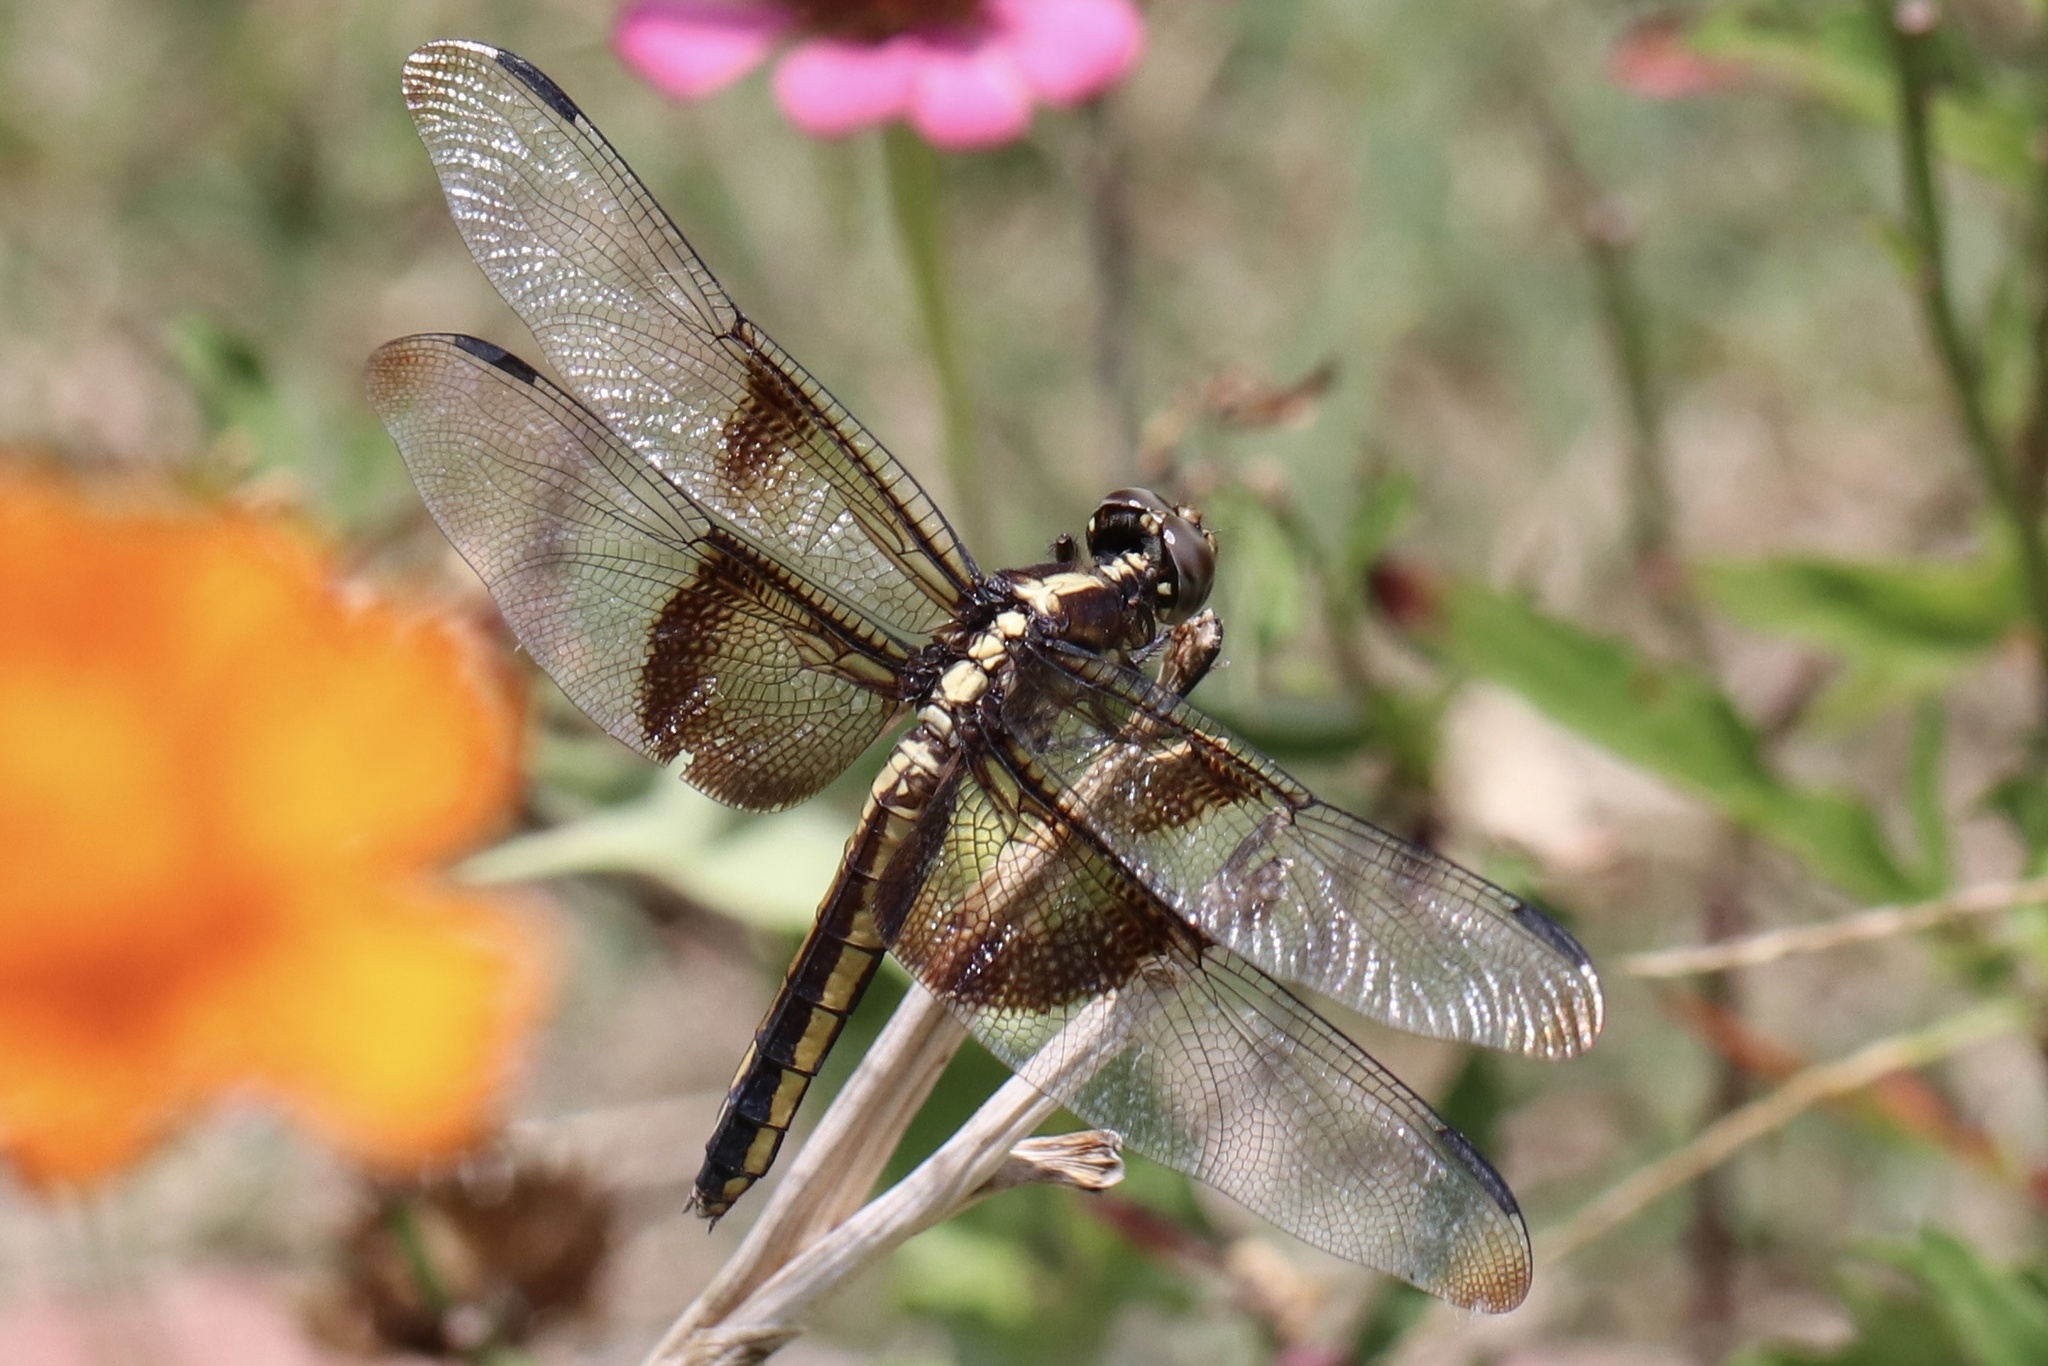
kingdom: Animalia
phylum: Arthropoda
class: Insecta
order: Odonata
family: Libellulidae
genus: Libellula
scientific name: Libellula luctuosa
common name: Widow skimmer
